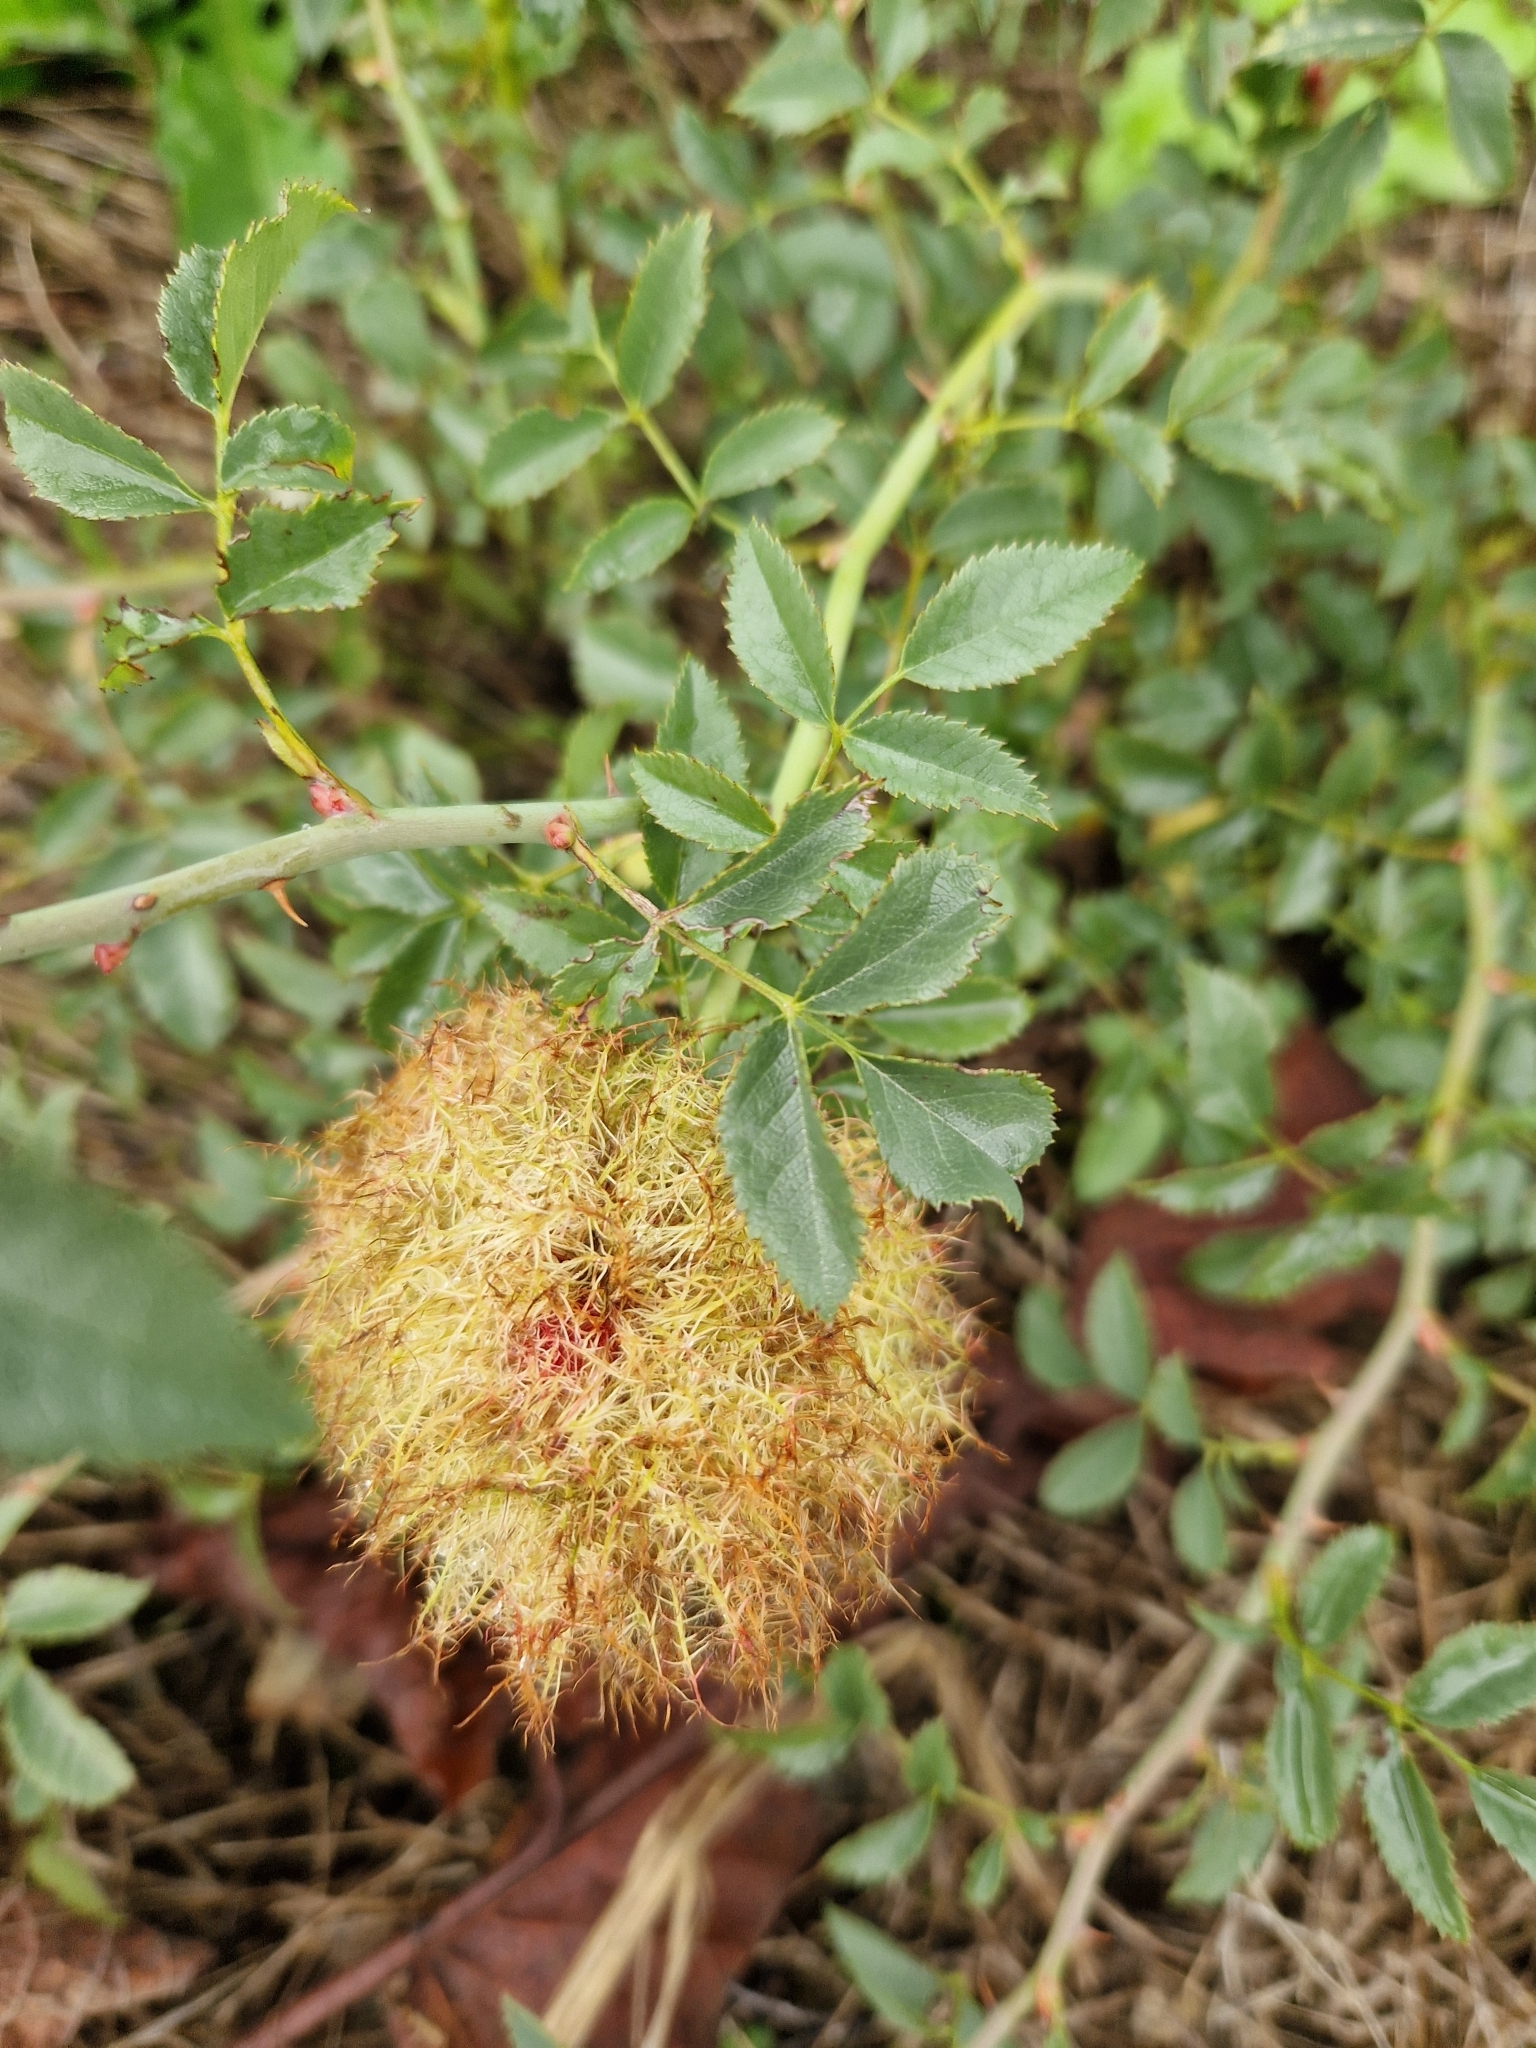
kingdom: Animalia
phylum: Arthropoda
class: Insecta
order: Hymenoptera
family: Cynipidae
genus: Diplolepis
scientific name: Diplolepis rosae
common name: Bedeguar gall
